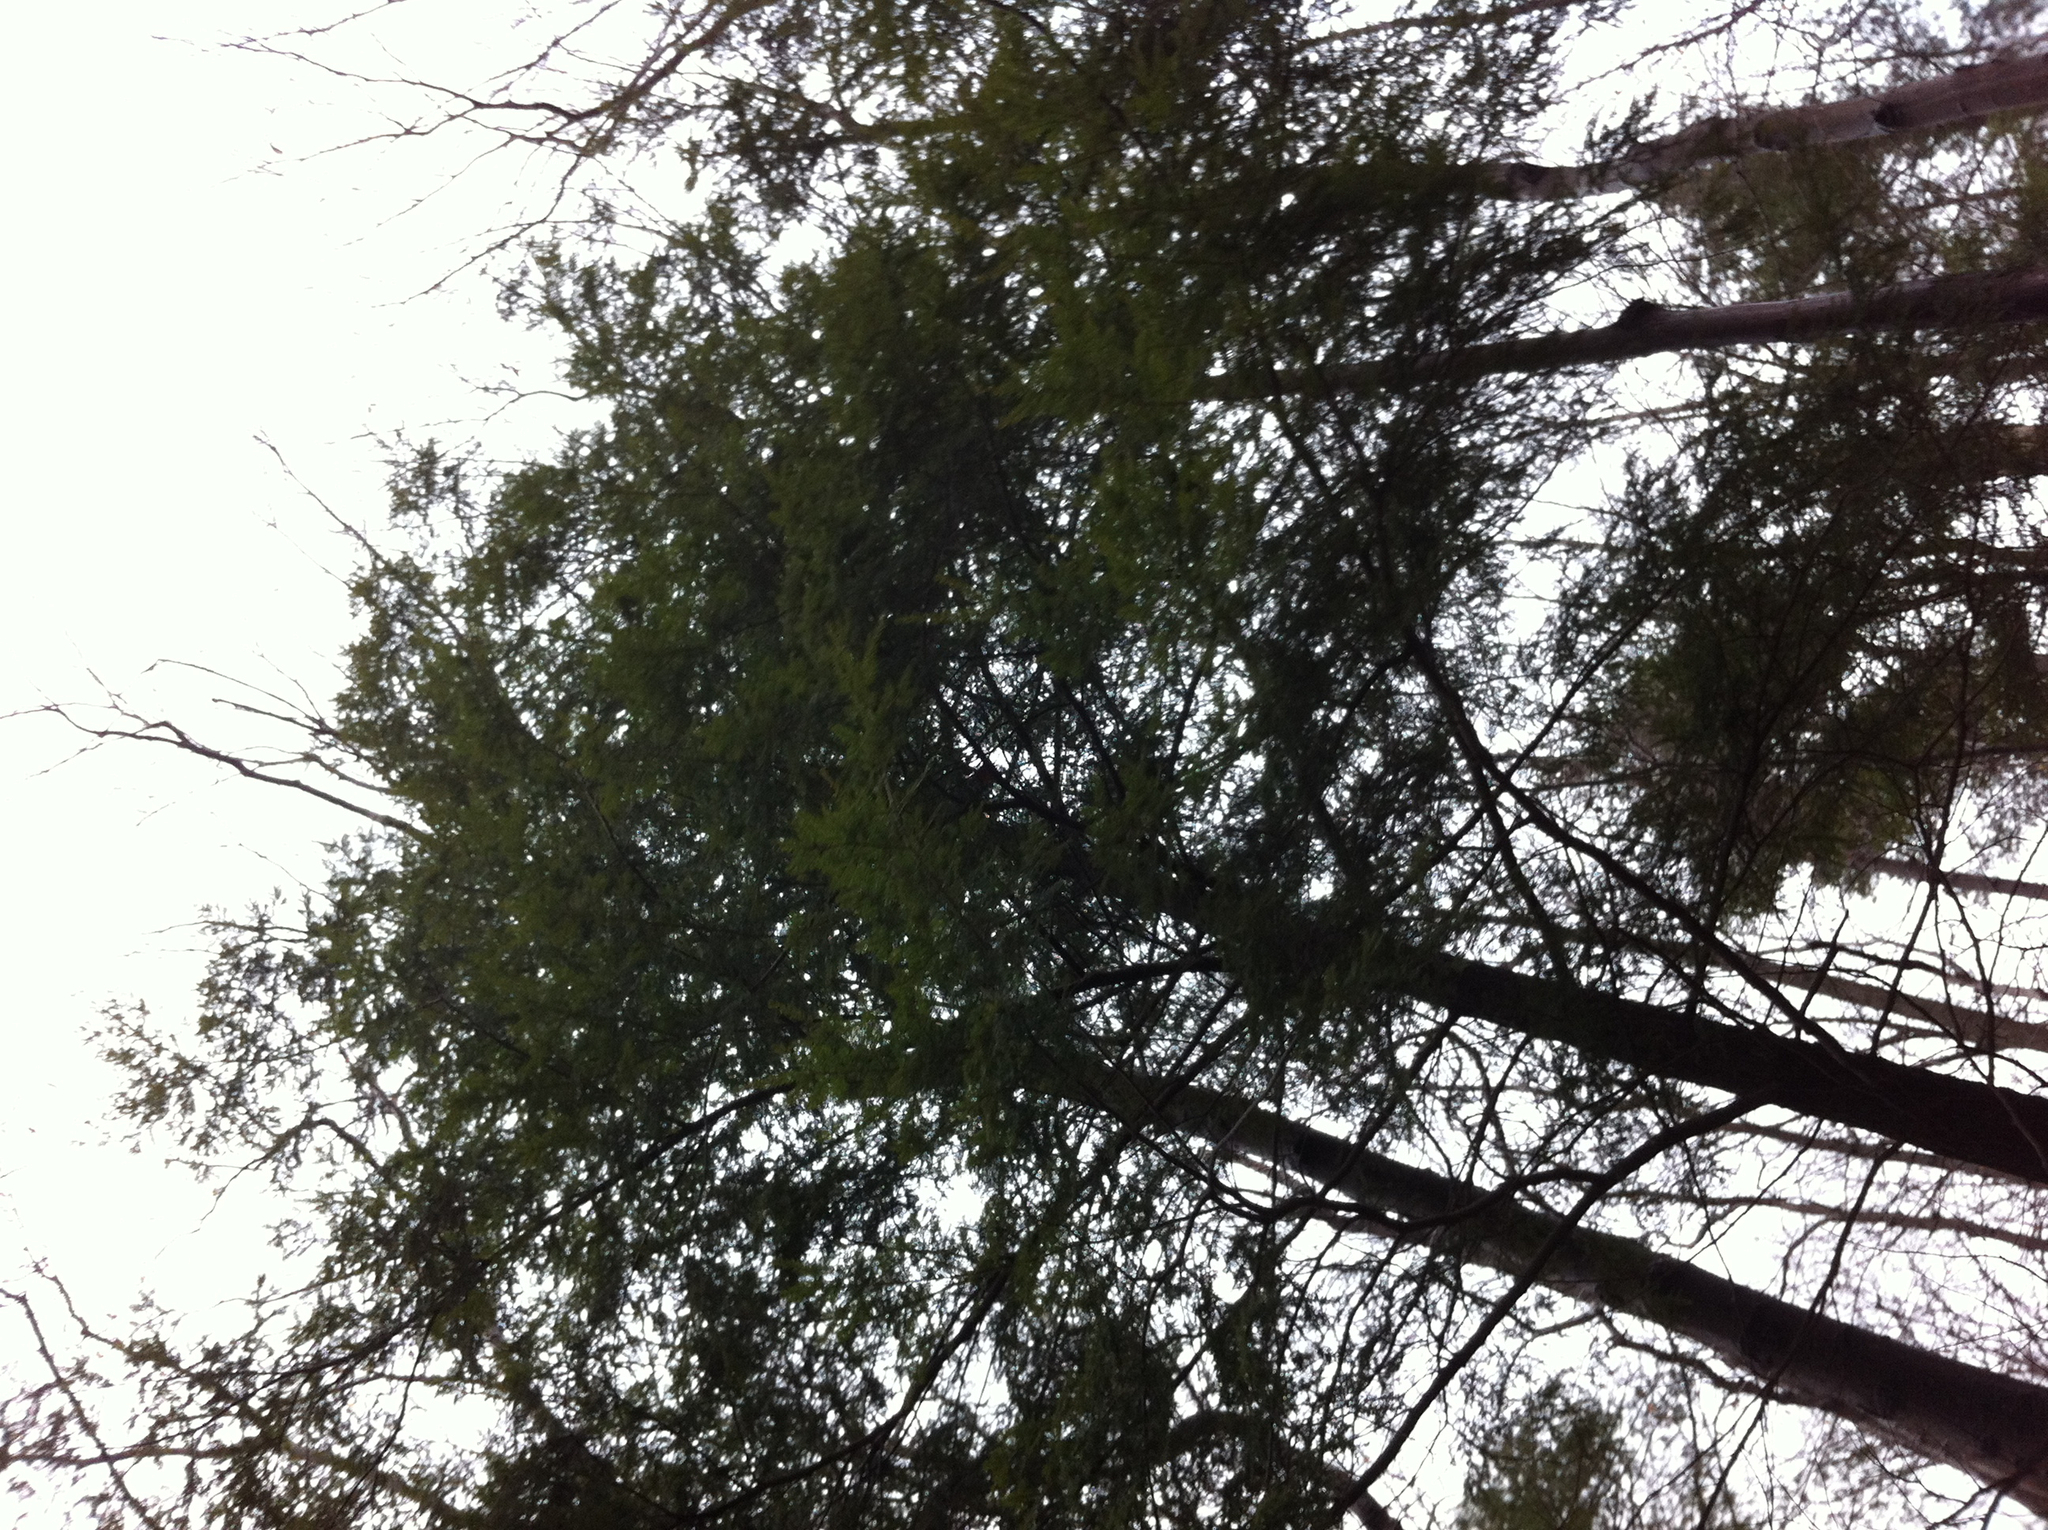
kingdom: Plantae
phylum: Tracheophyta
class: Pinopsida
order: Pinales
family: Pinaceae
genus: Tsuga
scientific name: Tsuga canadensis
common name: Eastern hemlock
